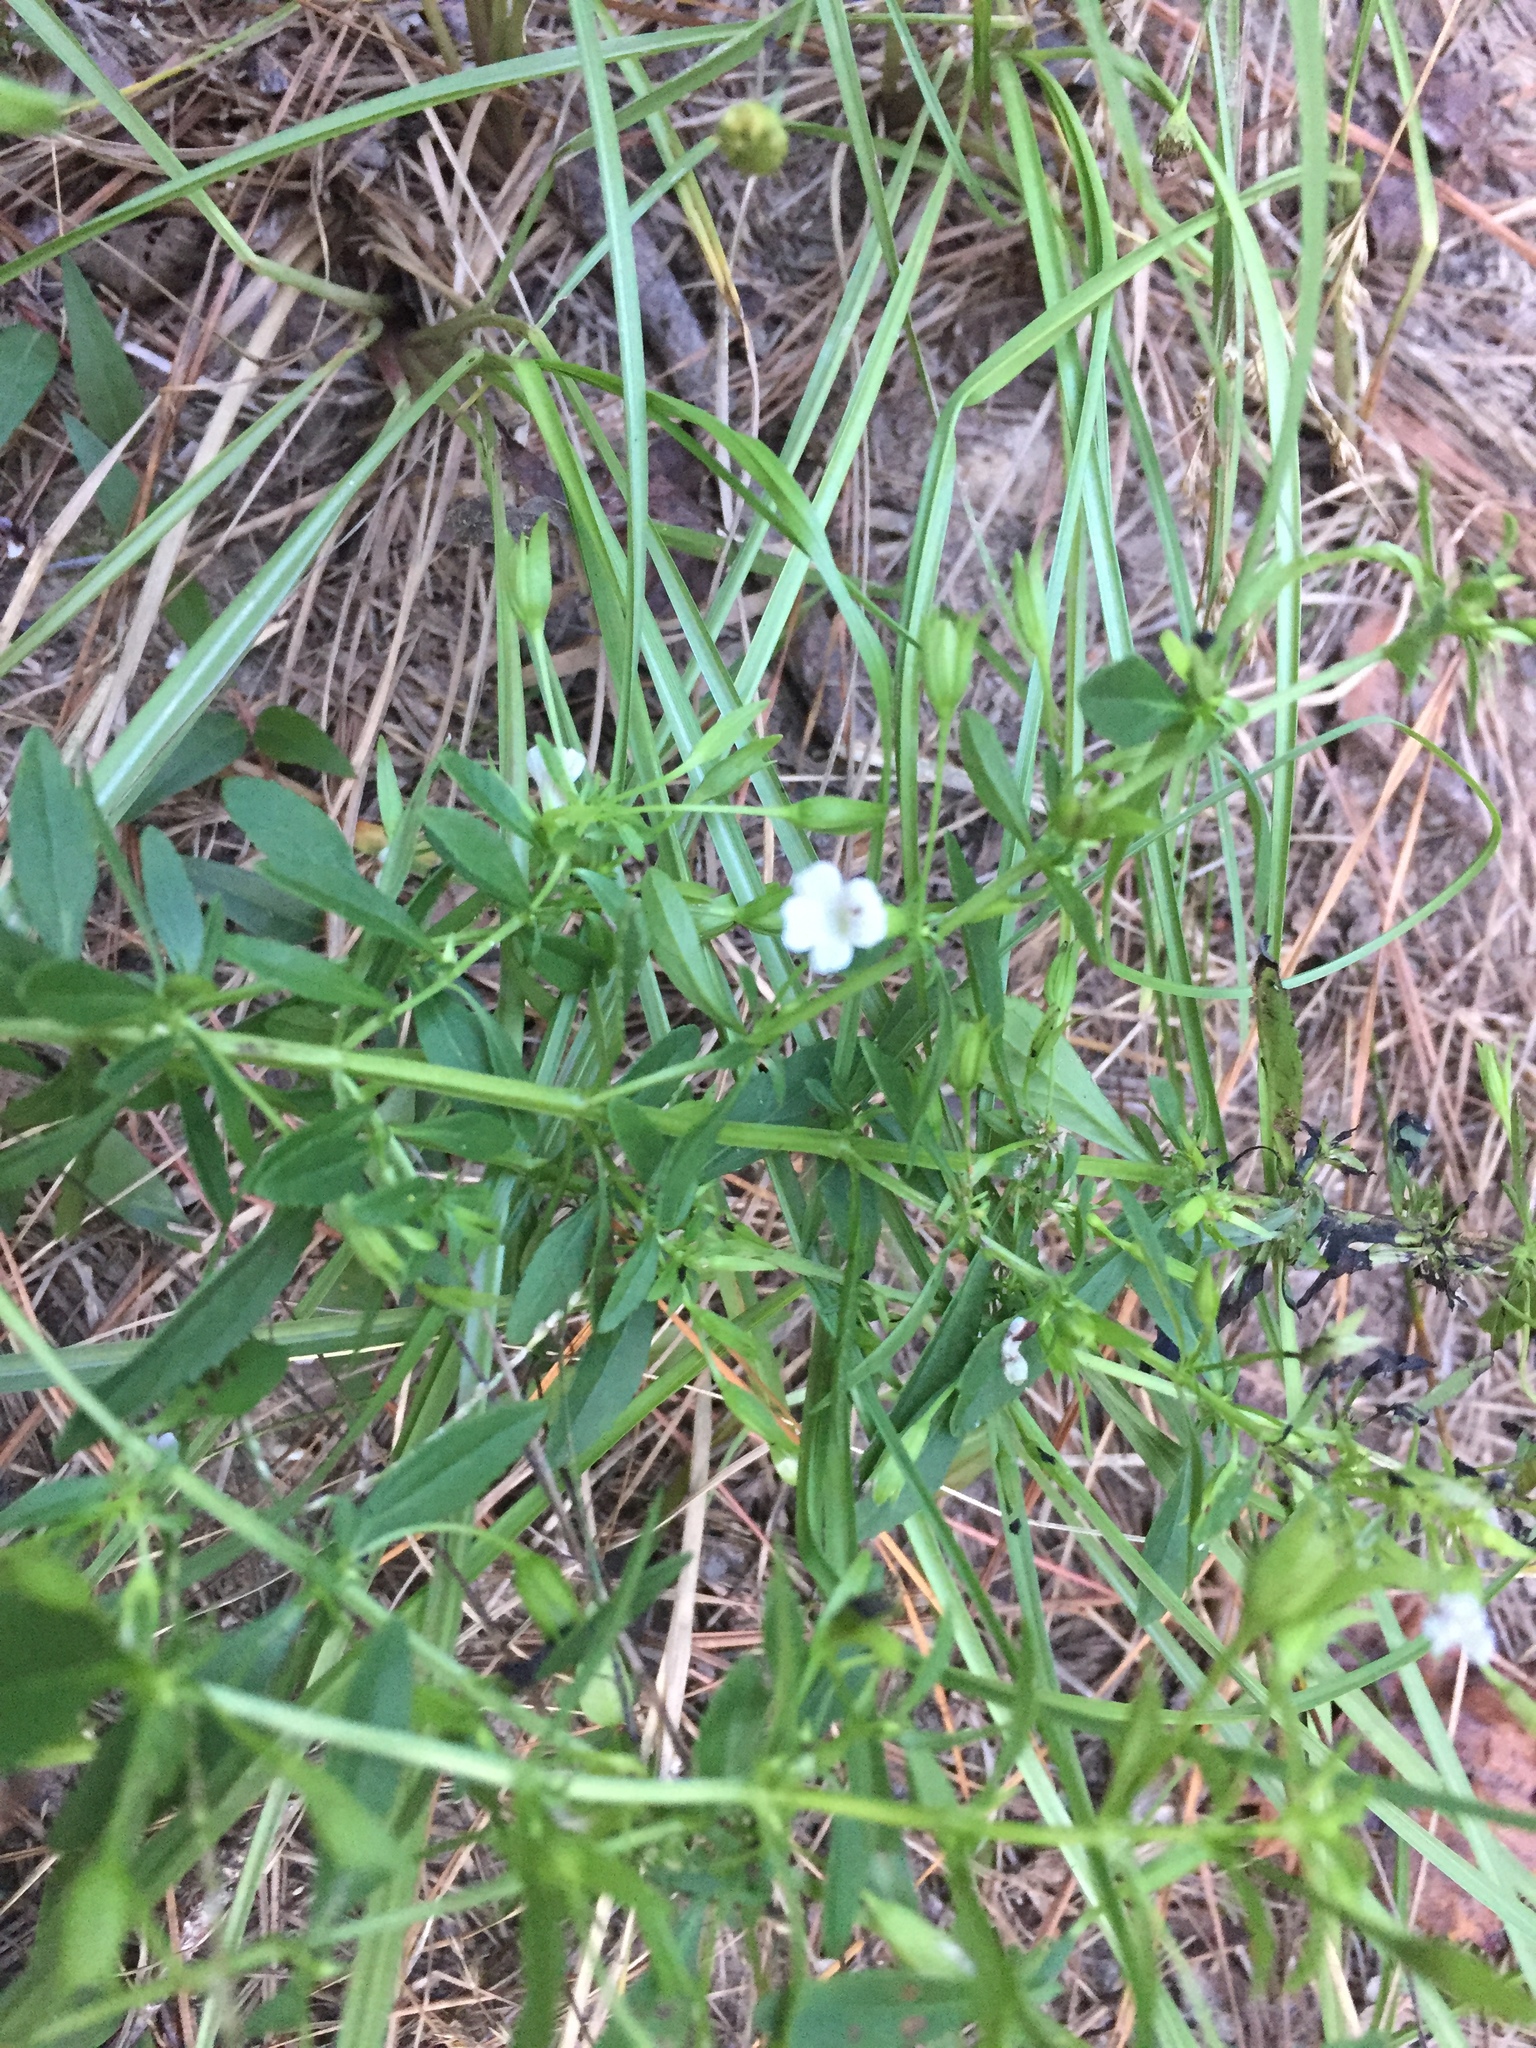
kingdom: Plantae
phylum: Tracheophyta
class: Magnoliopsida
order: Lamiales
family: Plantaginaceae
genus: Mecardonia
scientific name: Mecardonia acuminata
